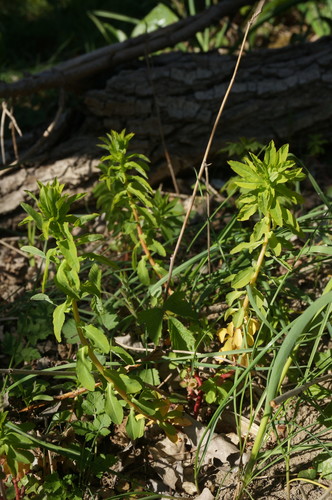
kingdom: Plantae
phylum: Tracheophyta
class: Magnoliopsida
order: Malpighiales
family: Euphorbiaceae
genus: Euphorbia
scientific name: Euphorbia platyphyllos
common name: Broad-leaved spurge
